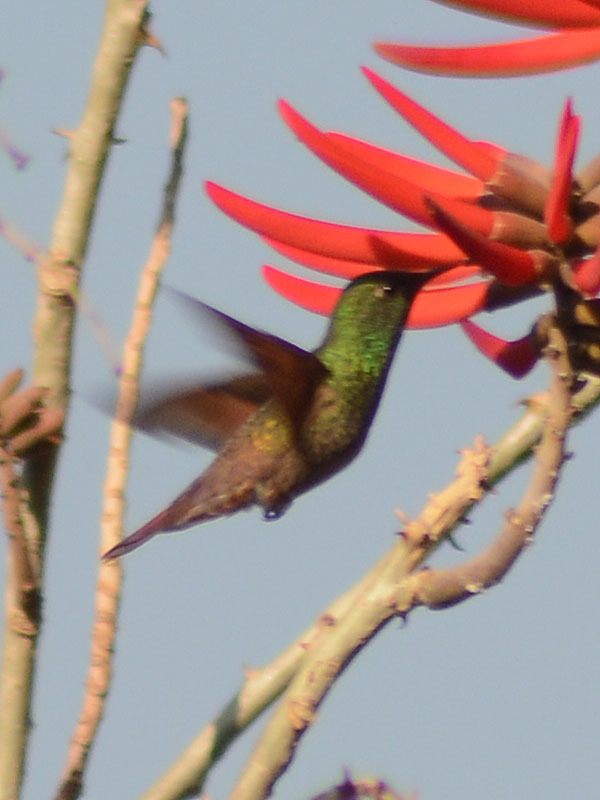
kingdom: Animalia
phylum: Chordata
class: Aves
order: Apodiformes
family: Trochilidae
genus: Saucerottia
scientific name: Saucerottia beryllina
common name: Berylline hummingbird
